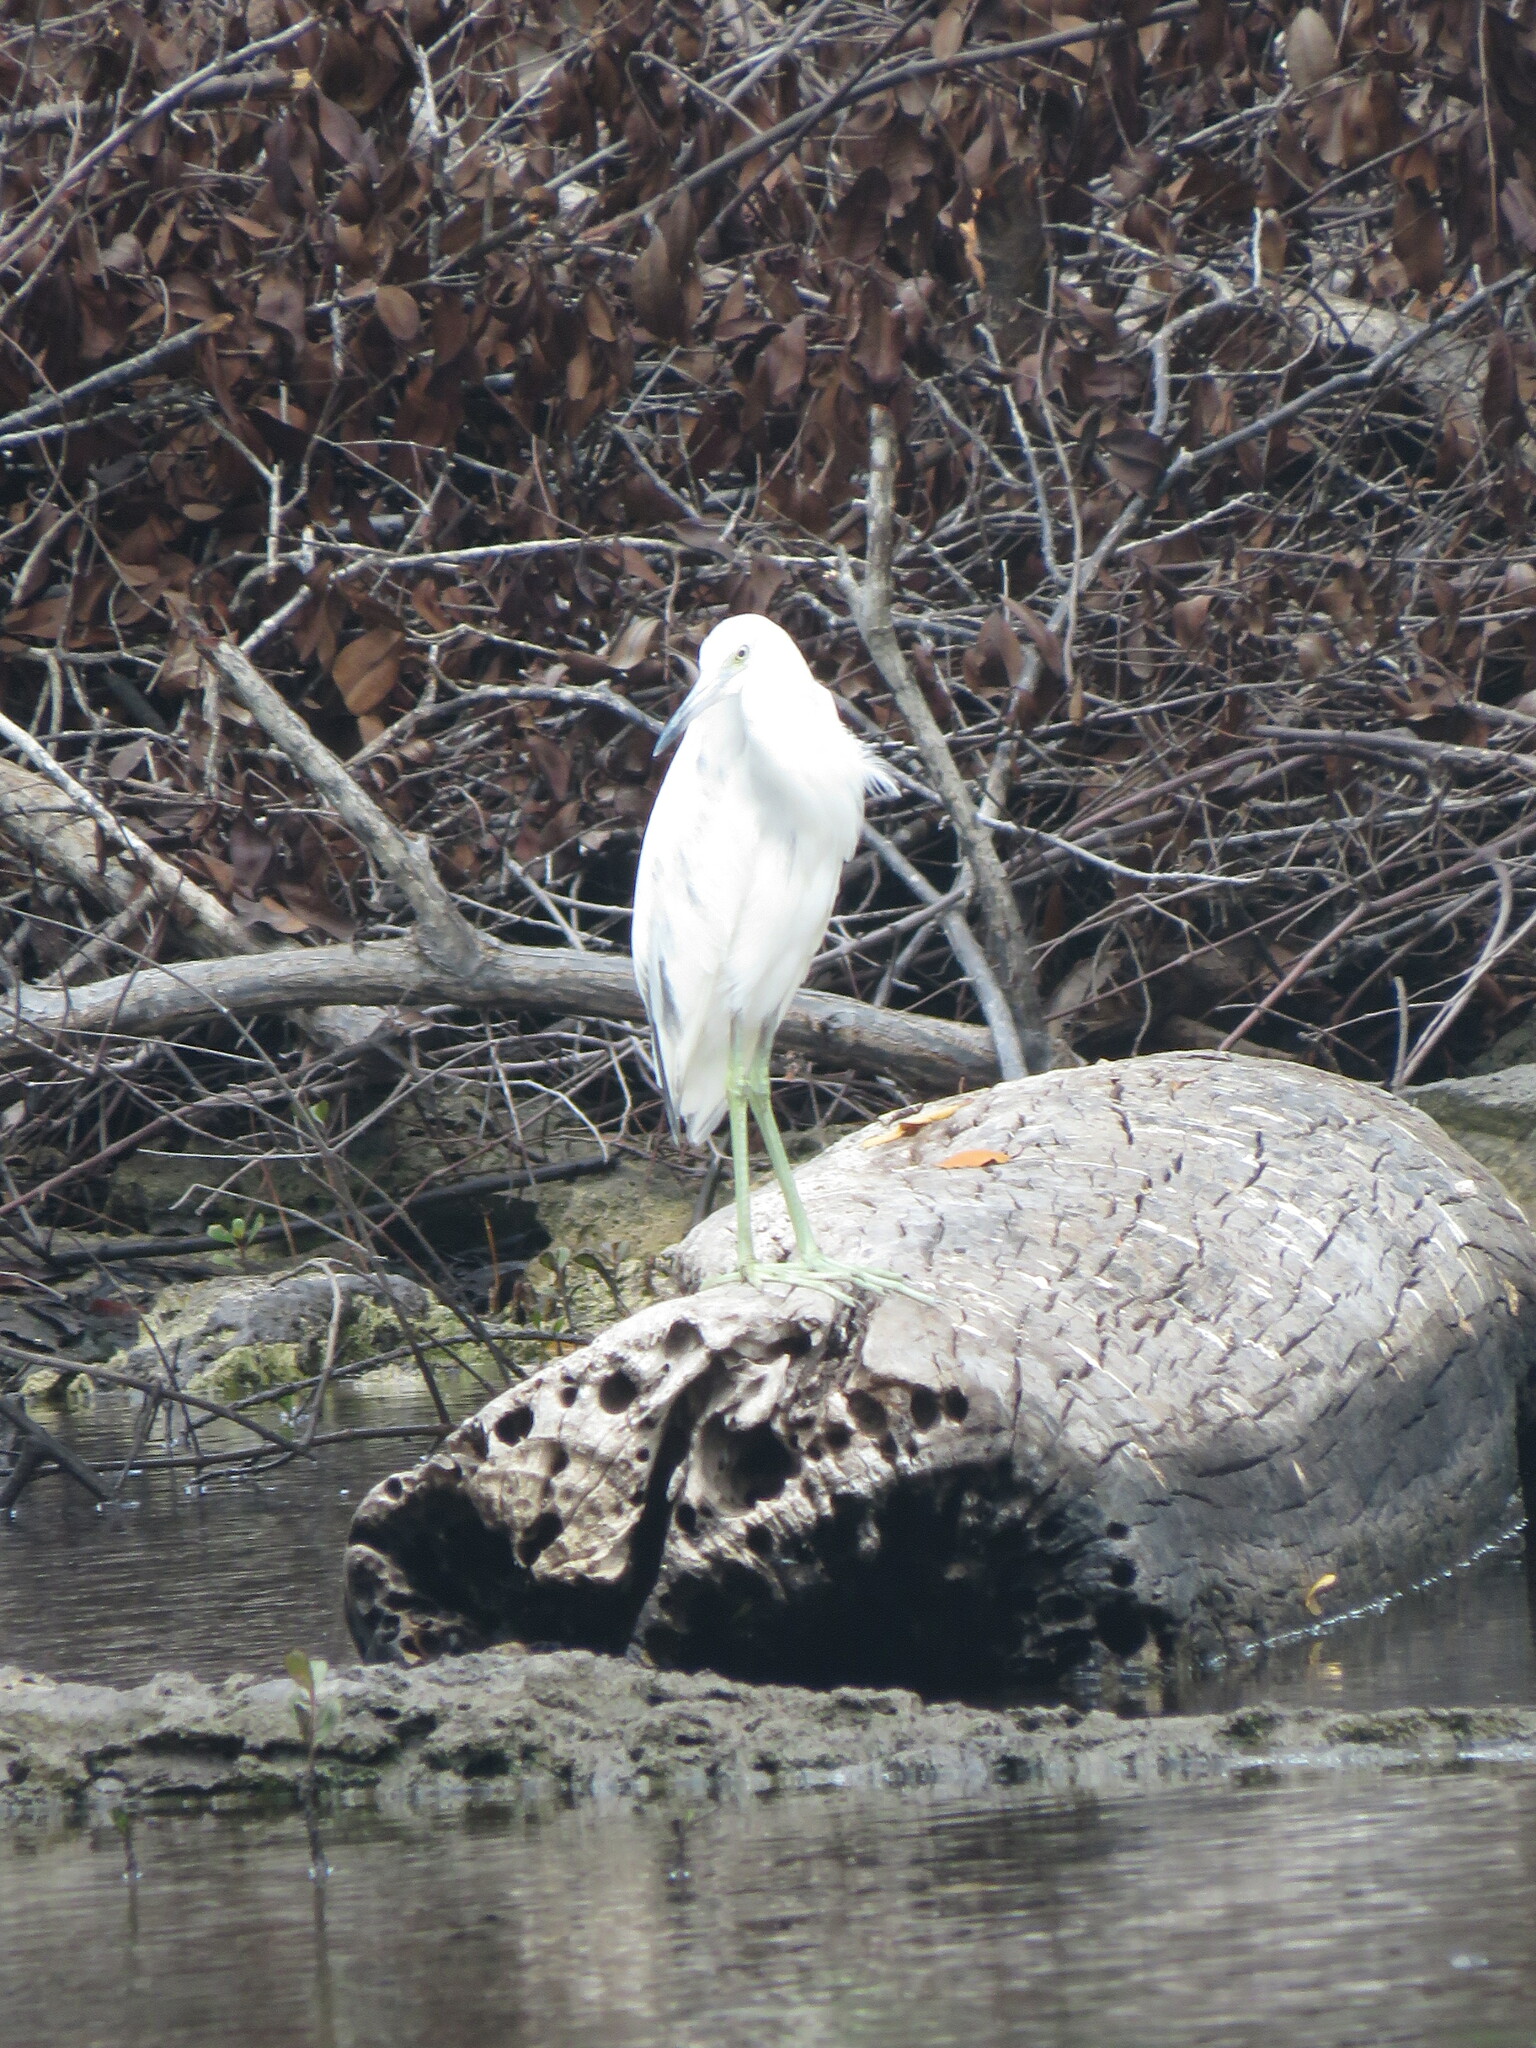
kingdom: Animalia
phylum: Chordata
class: Aves
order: Pelecaniformes
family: Ardeidae
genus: Egretta
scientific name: Egretta caerulea
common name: Little blue heron
